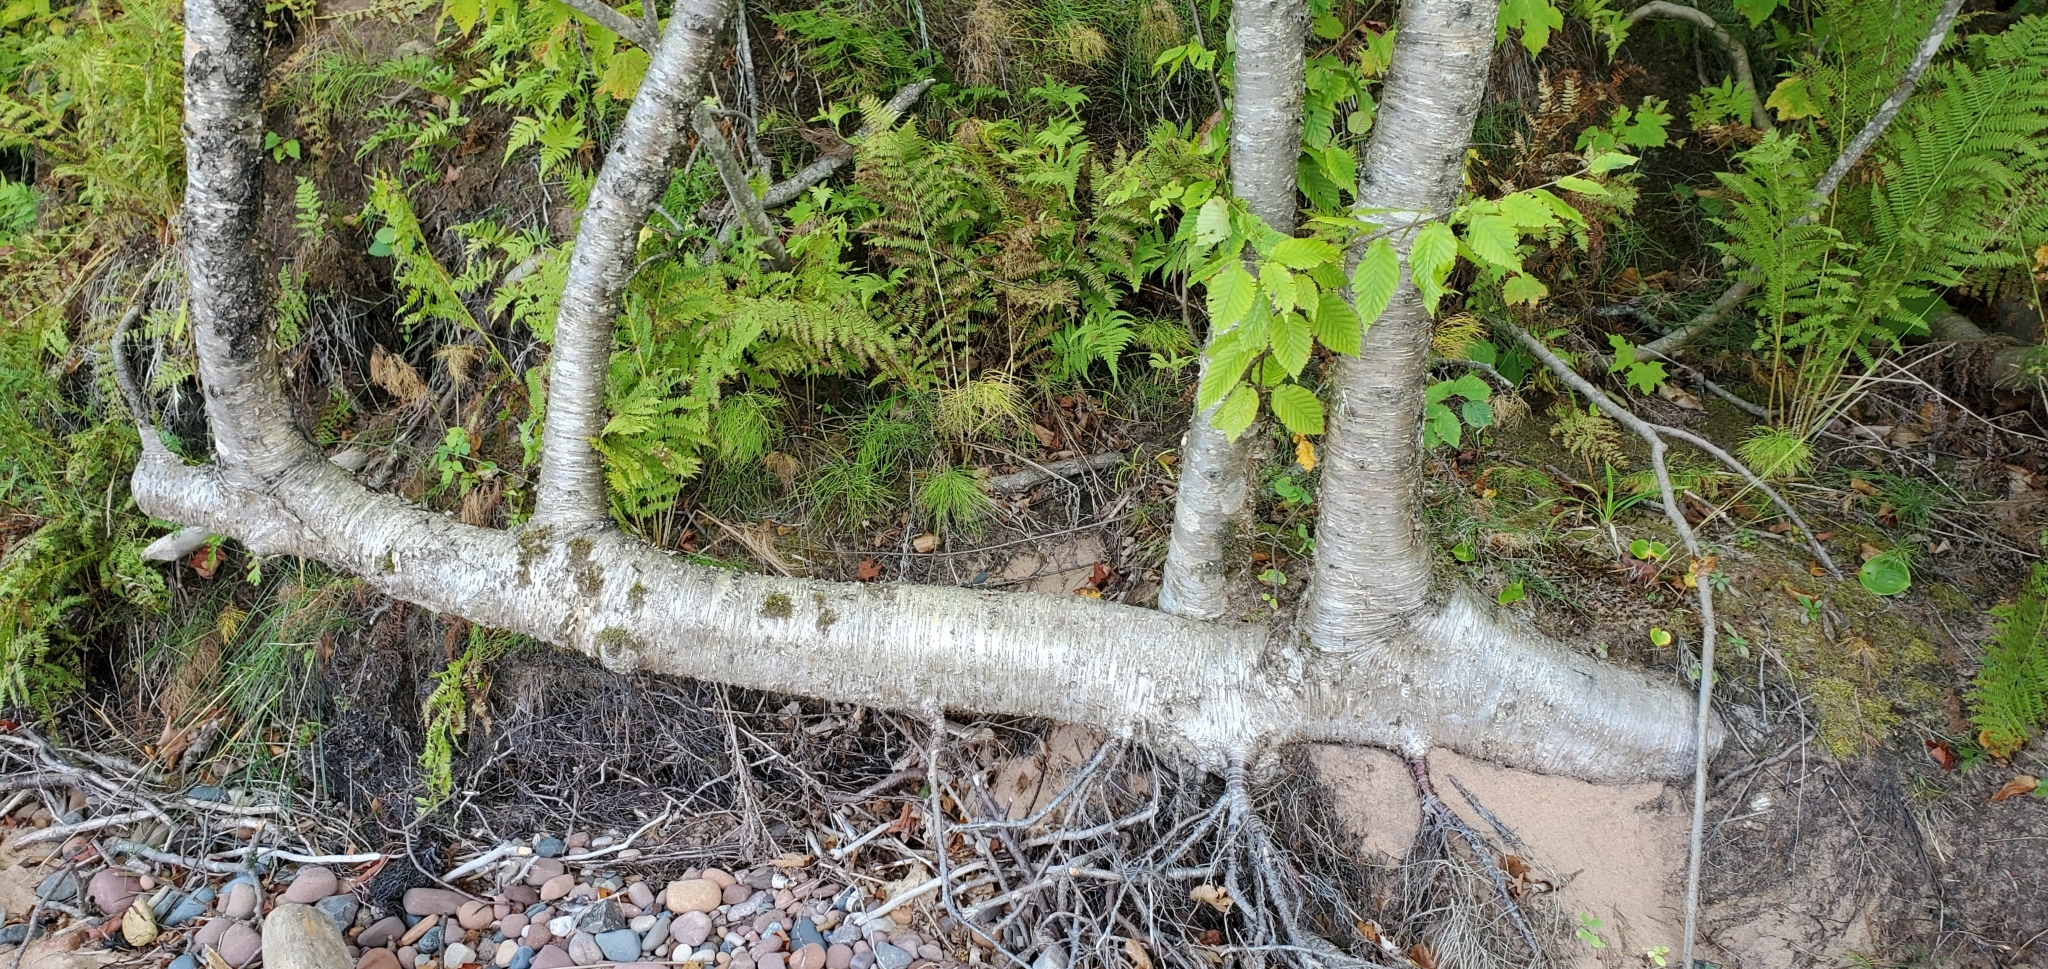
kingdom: Plantae
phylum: Tracheophyta
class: Magnoliopsida
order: Fagales
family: Betulaceae
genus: Betula
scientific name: Betula alleghaniensis
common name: Yellow birch
